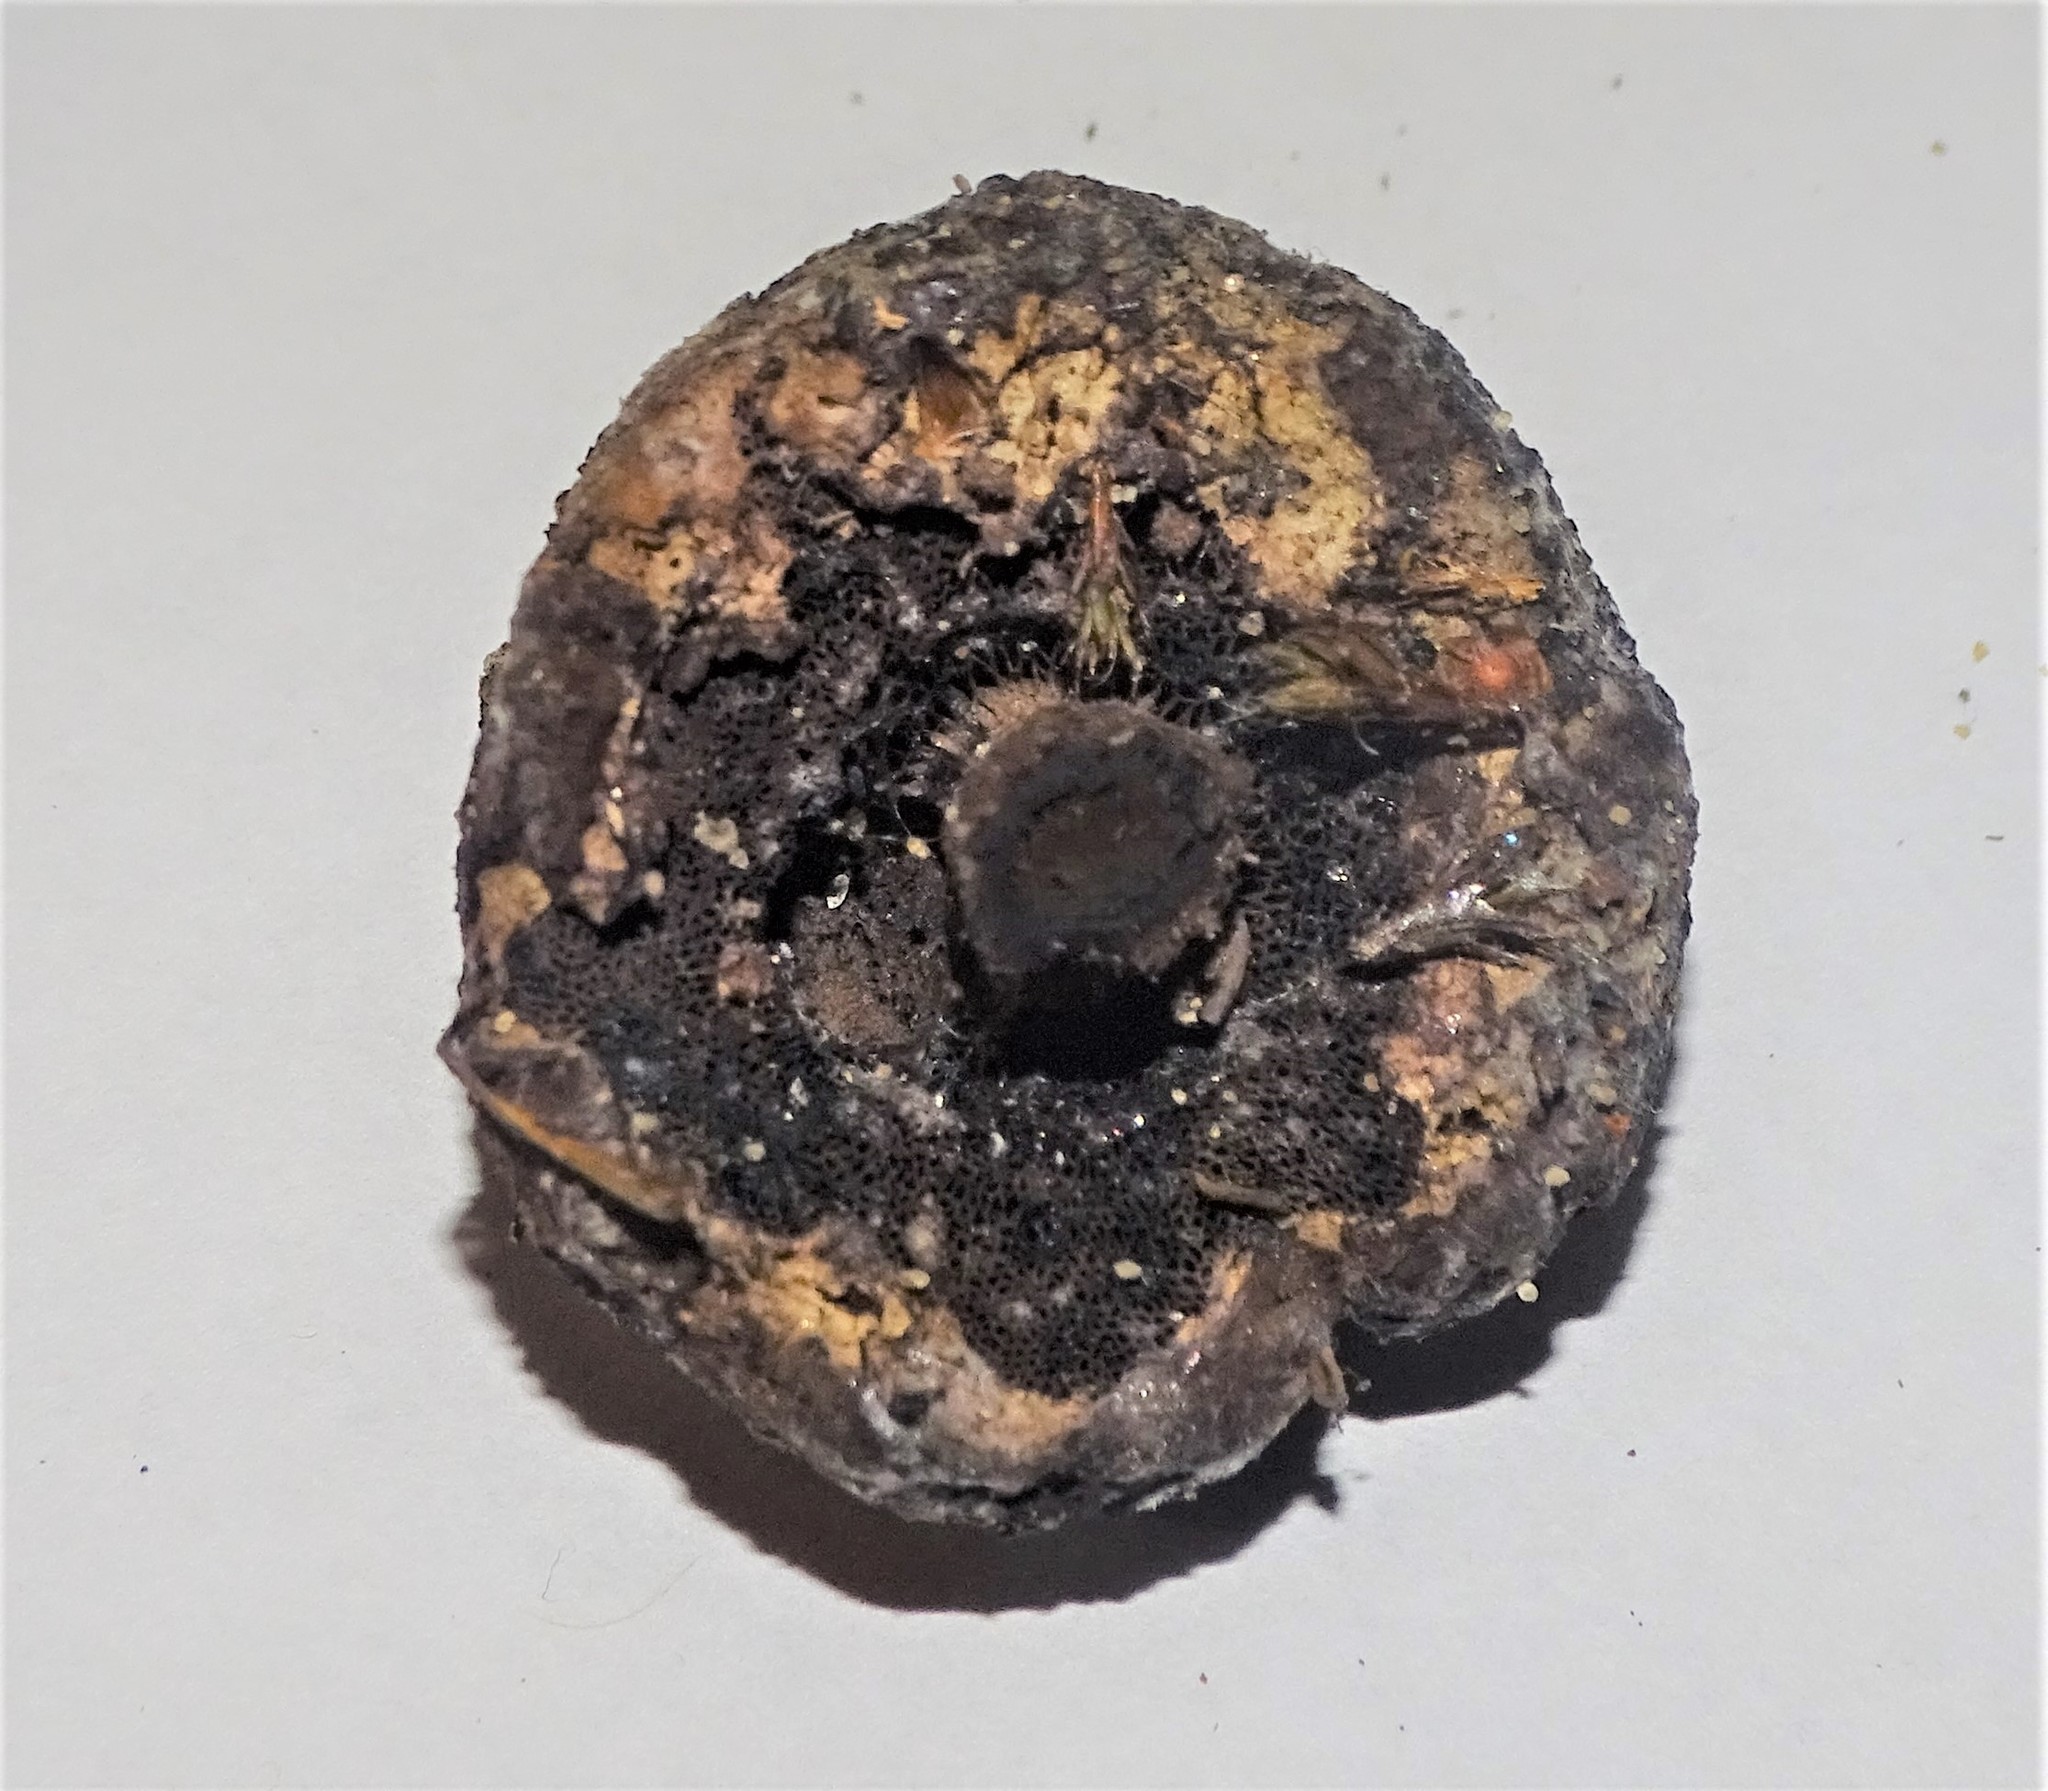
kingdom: Fungi
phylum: Basidiomycota
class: Agaricomycetes
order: Boletales
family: Boletaceae
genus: Strobilomyces
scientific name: Strobilomyces strobilaceus
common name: Old man of the woods
